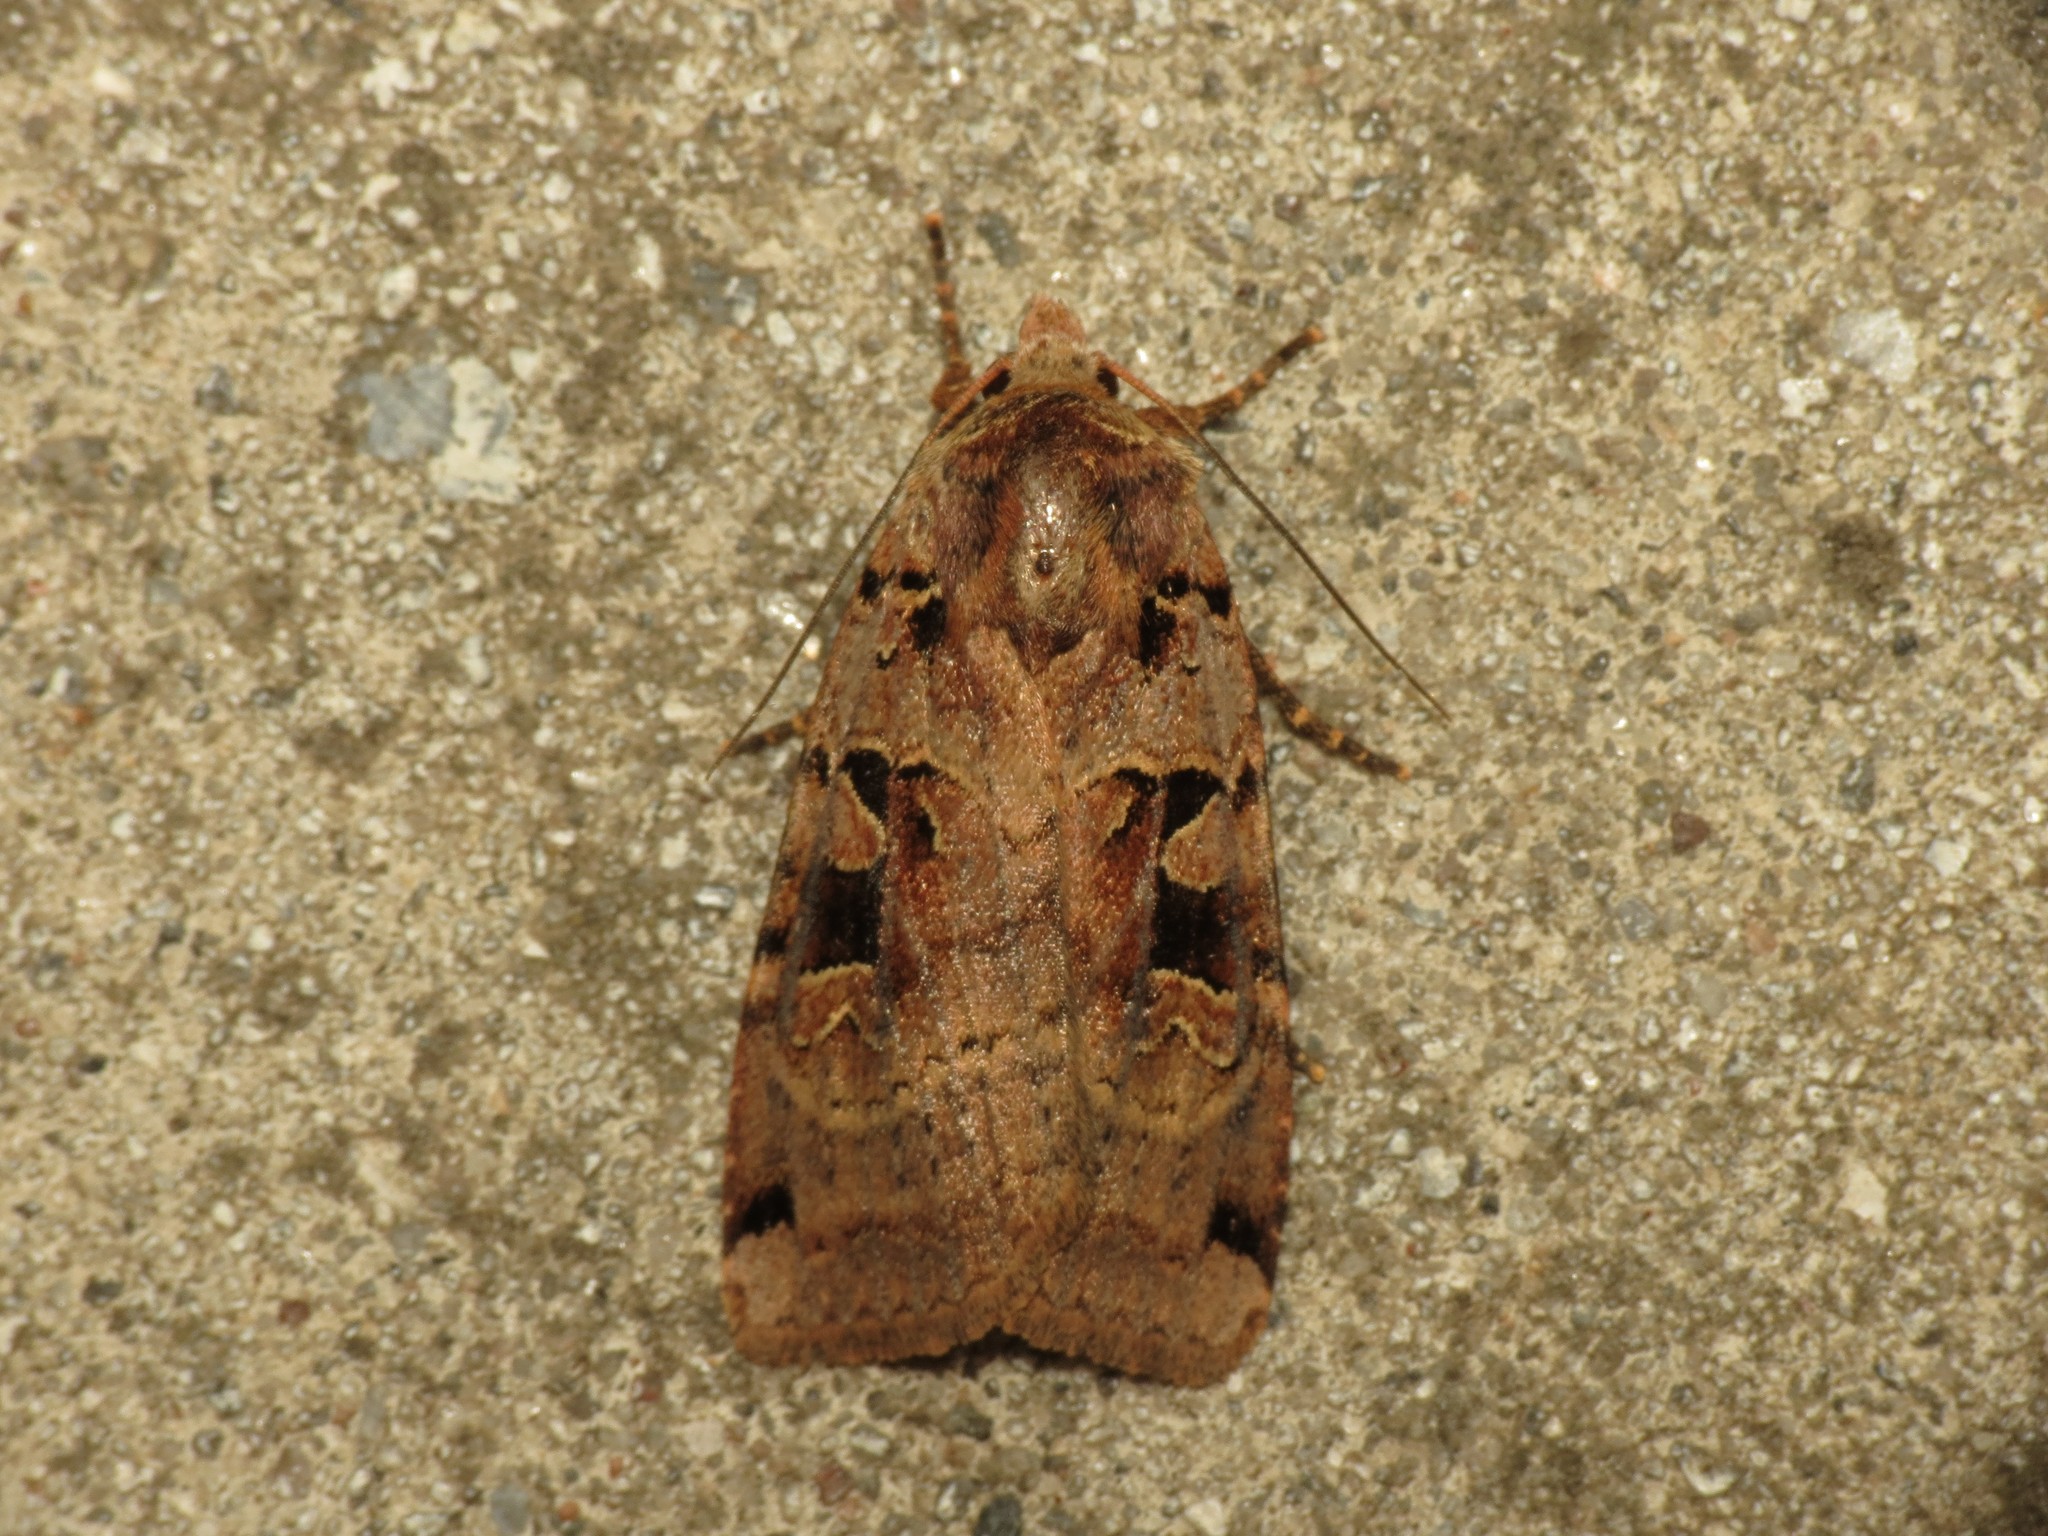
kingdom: Animalia
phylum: Arthropoda
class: Insecta
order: Lepidoptera
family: Noctuidae
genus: Xestia
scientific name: Xestia triangulum
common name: Double square-spot
